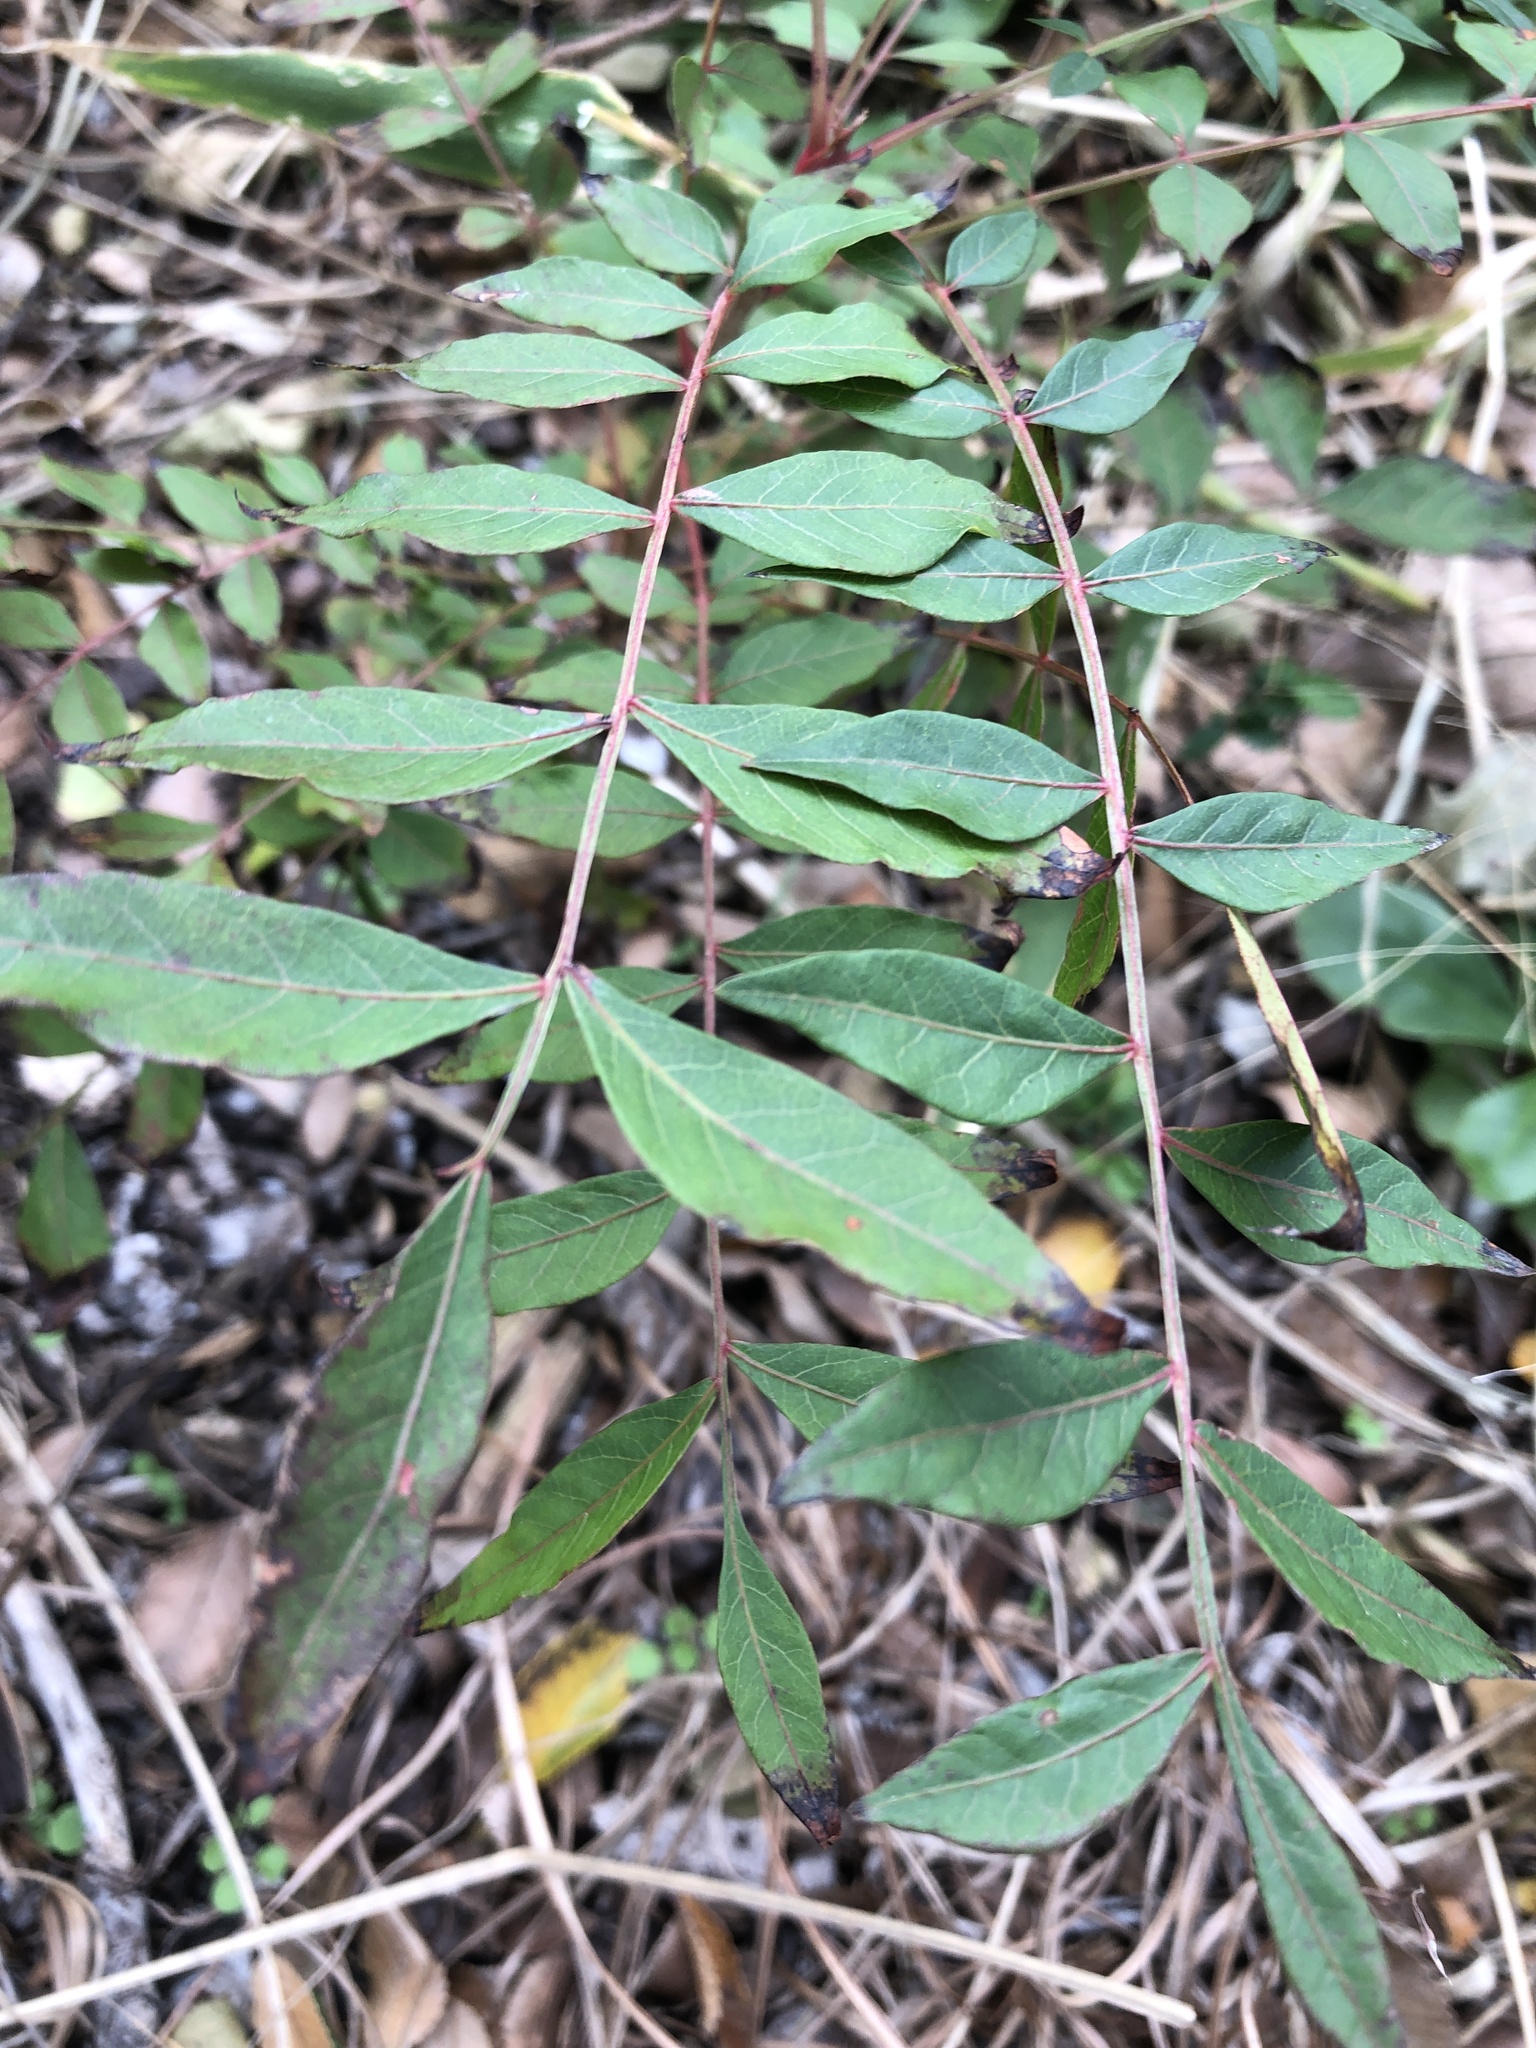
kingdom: Plantae
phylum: Tracheophyta
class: Magnoliopsida
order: Sapindales
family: Anacardiaceae
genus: Pistacia
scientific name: Pistacia chinensis
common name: Chinese pistache
